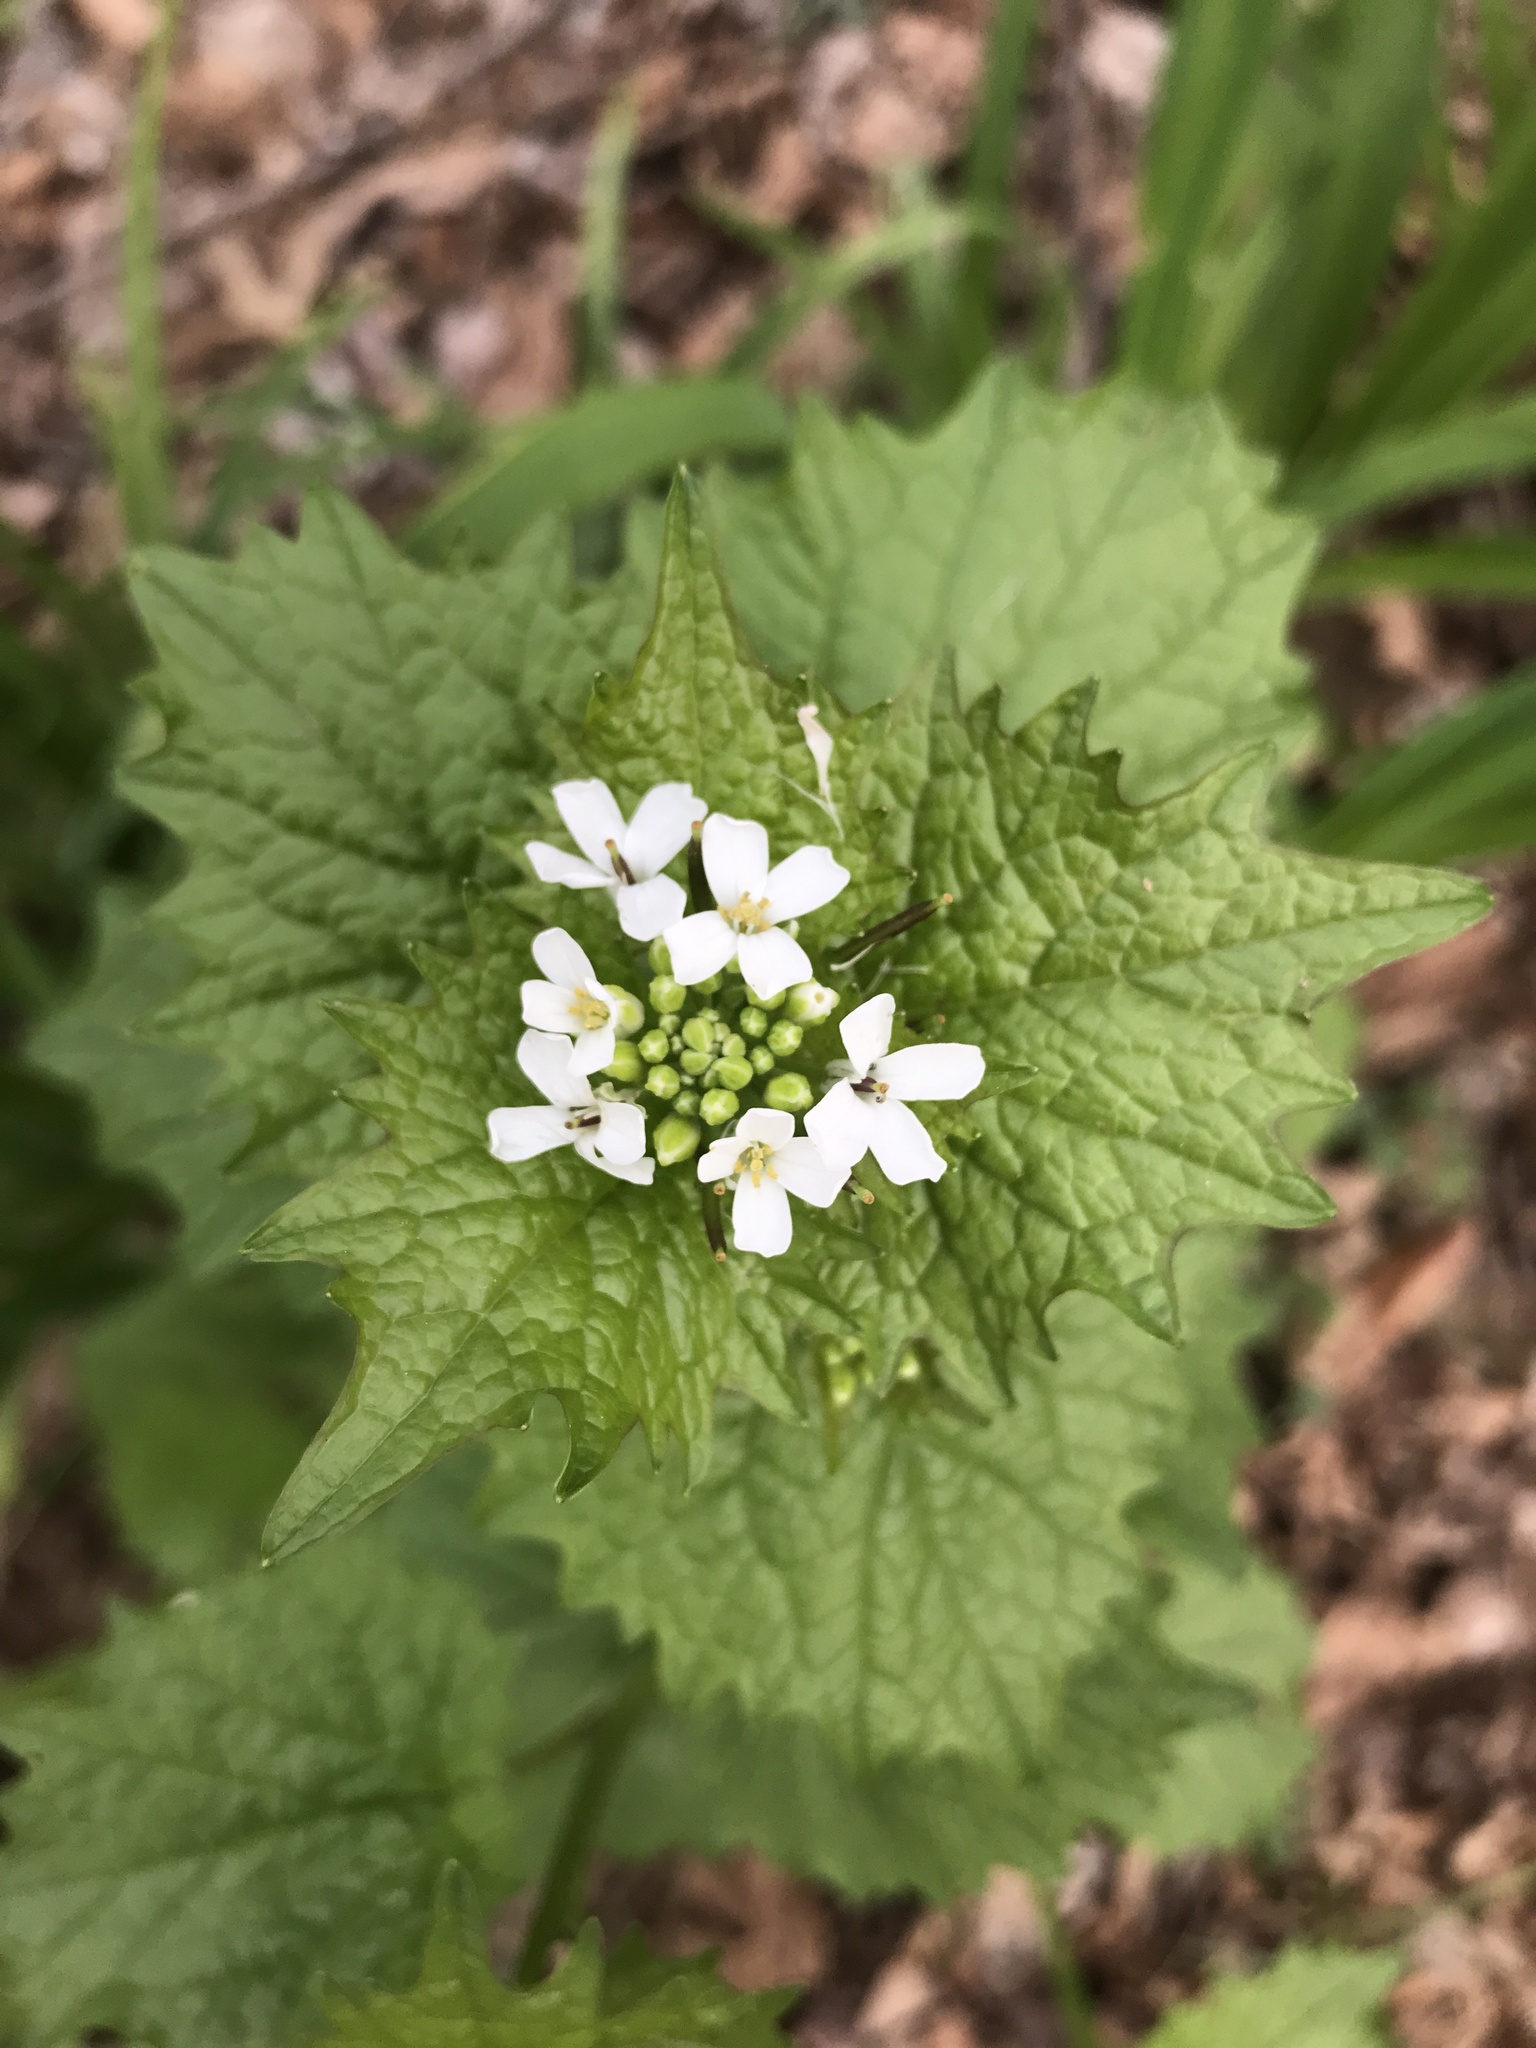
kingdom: Plantae
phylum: Tracheophyta
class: Magnoliopsida
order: Brassicales
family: Brassicaceae
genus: Alliaria
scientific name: Alliaria petiolata
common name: Garlic mustard
